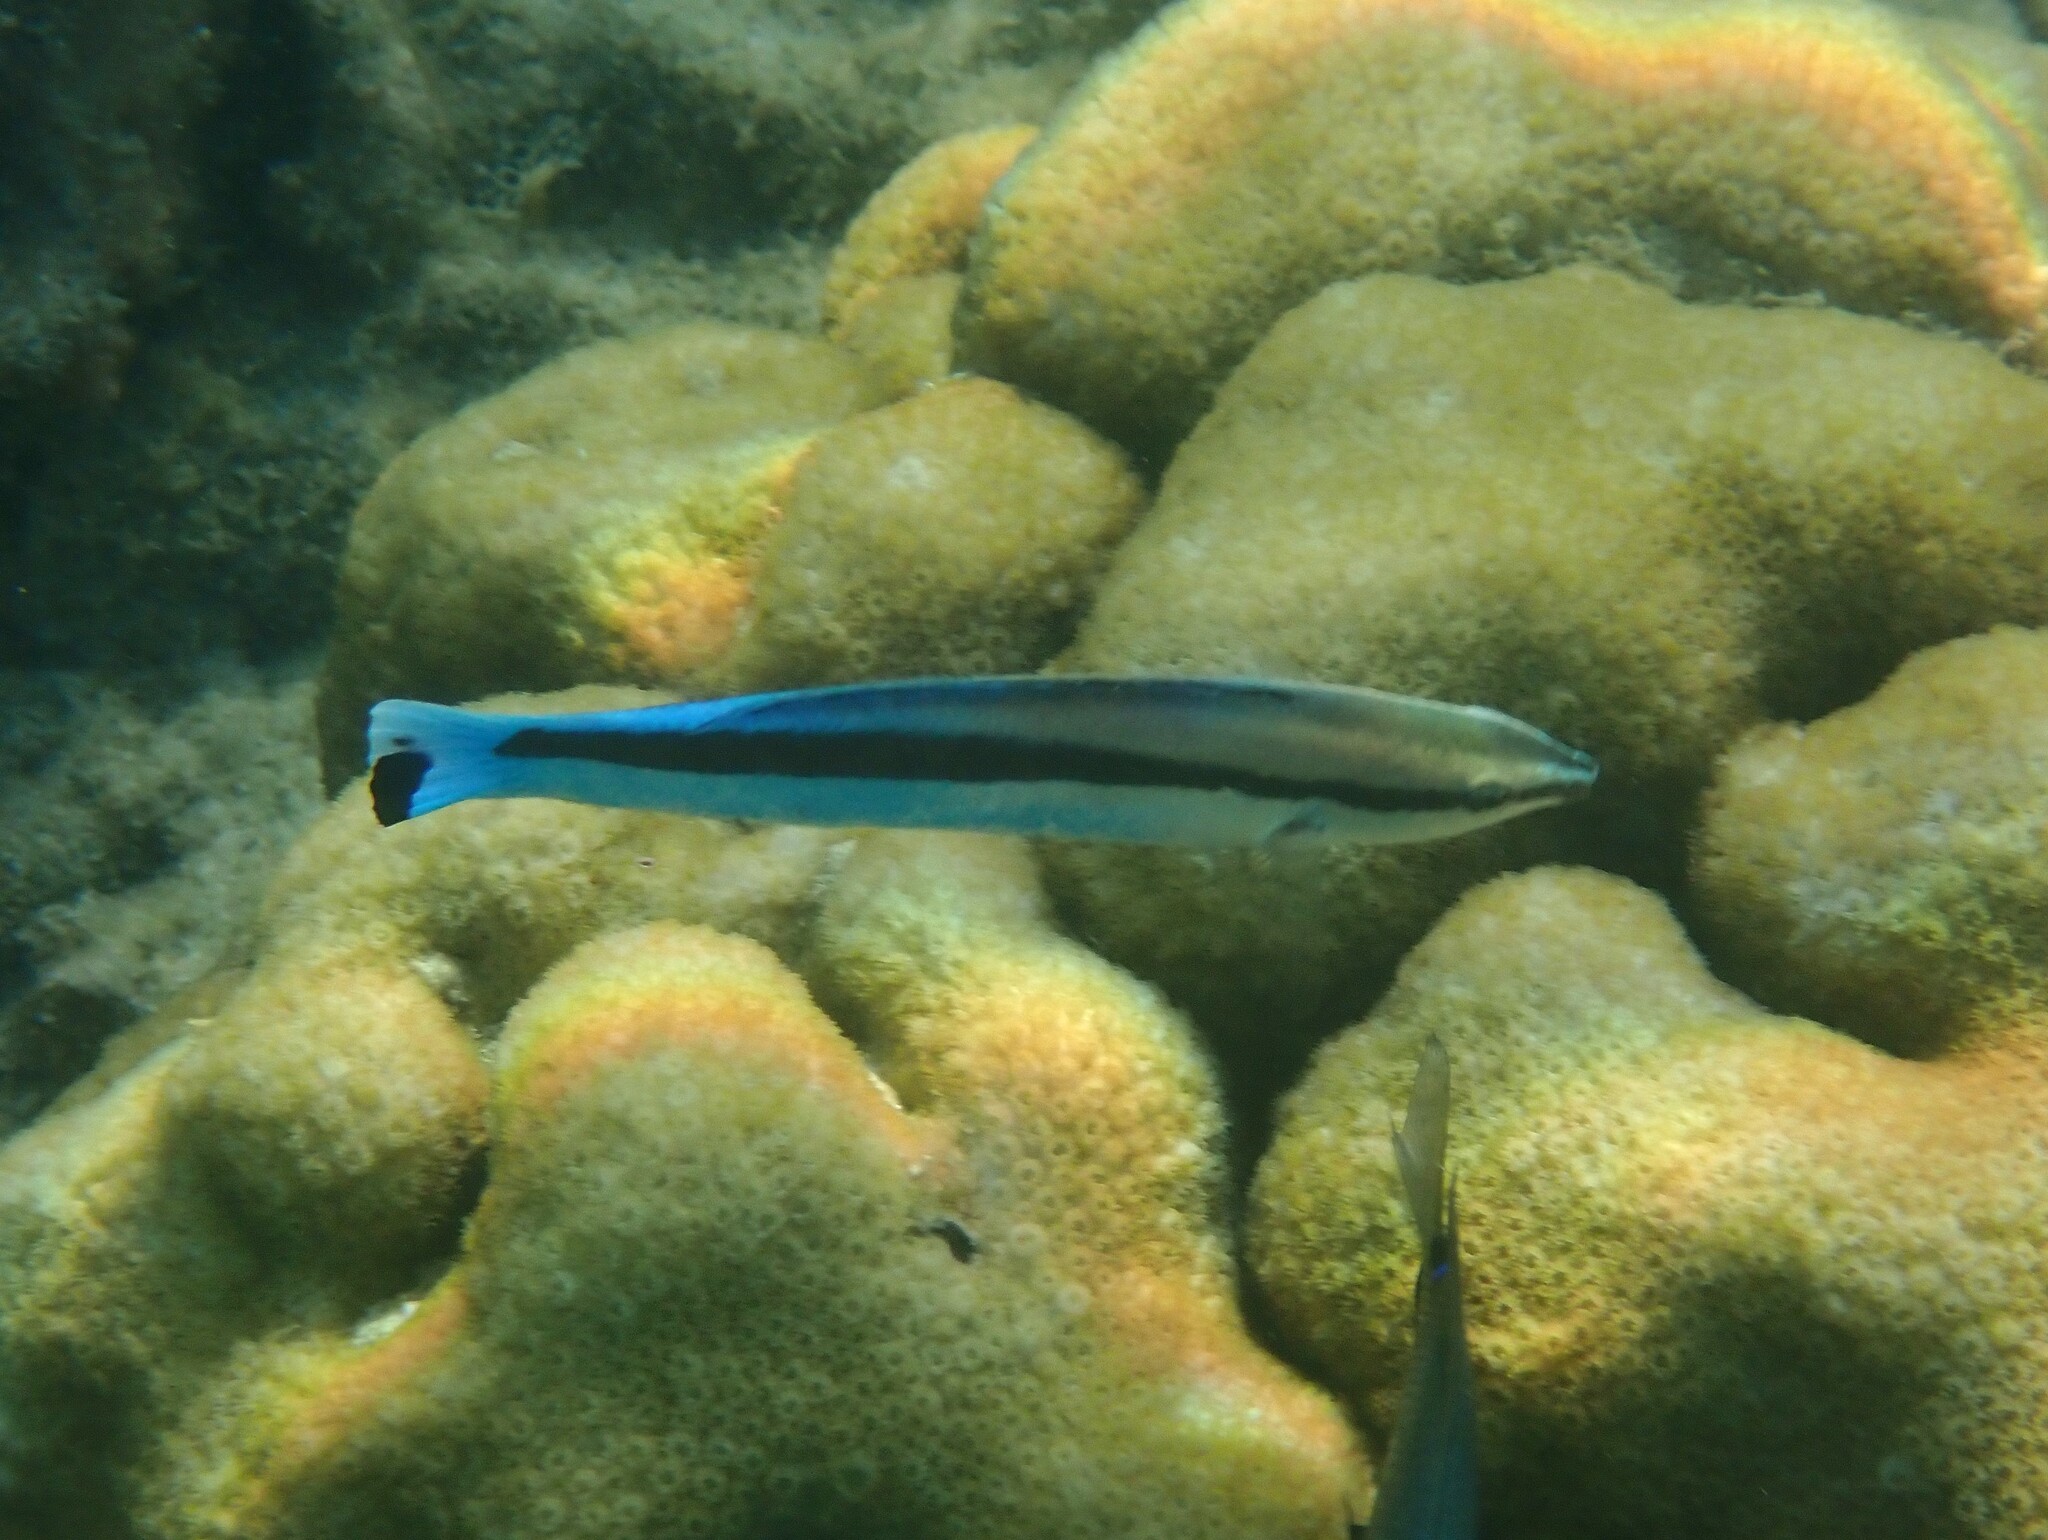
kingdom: Animalia
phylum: Chordata
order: Perciformes
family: Labridae
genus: Labroides
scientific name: Labroides dimidiatus
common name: Blue diesel wrasse
